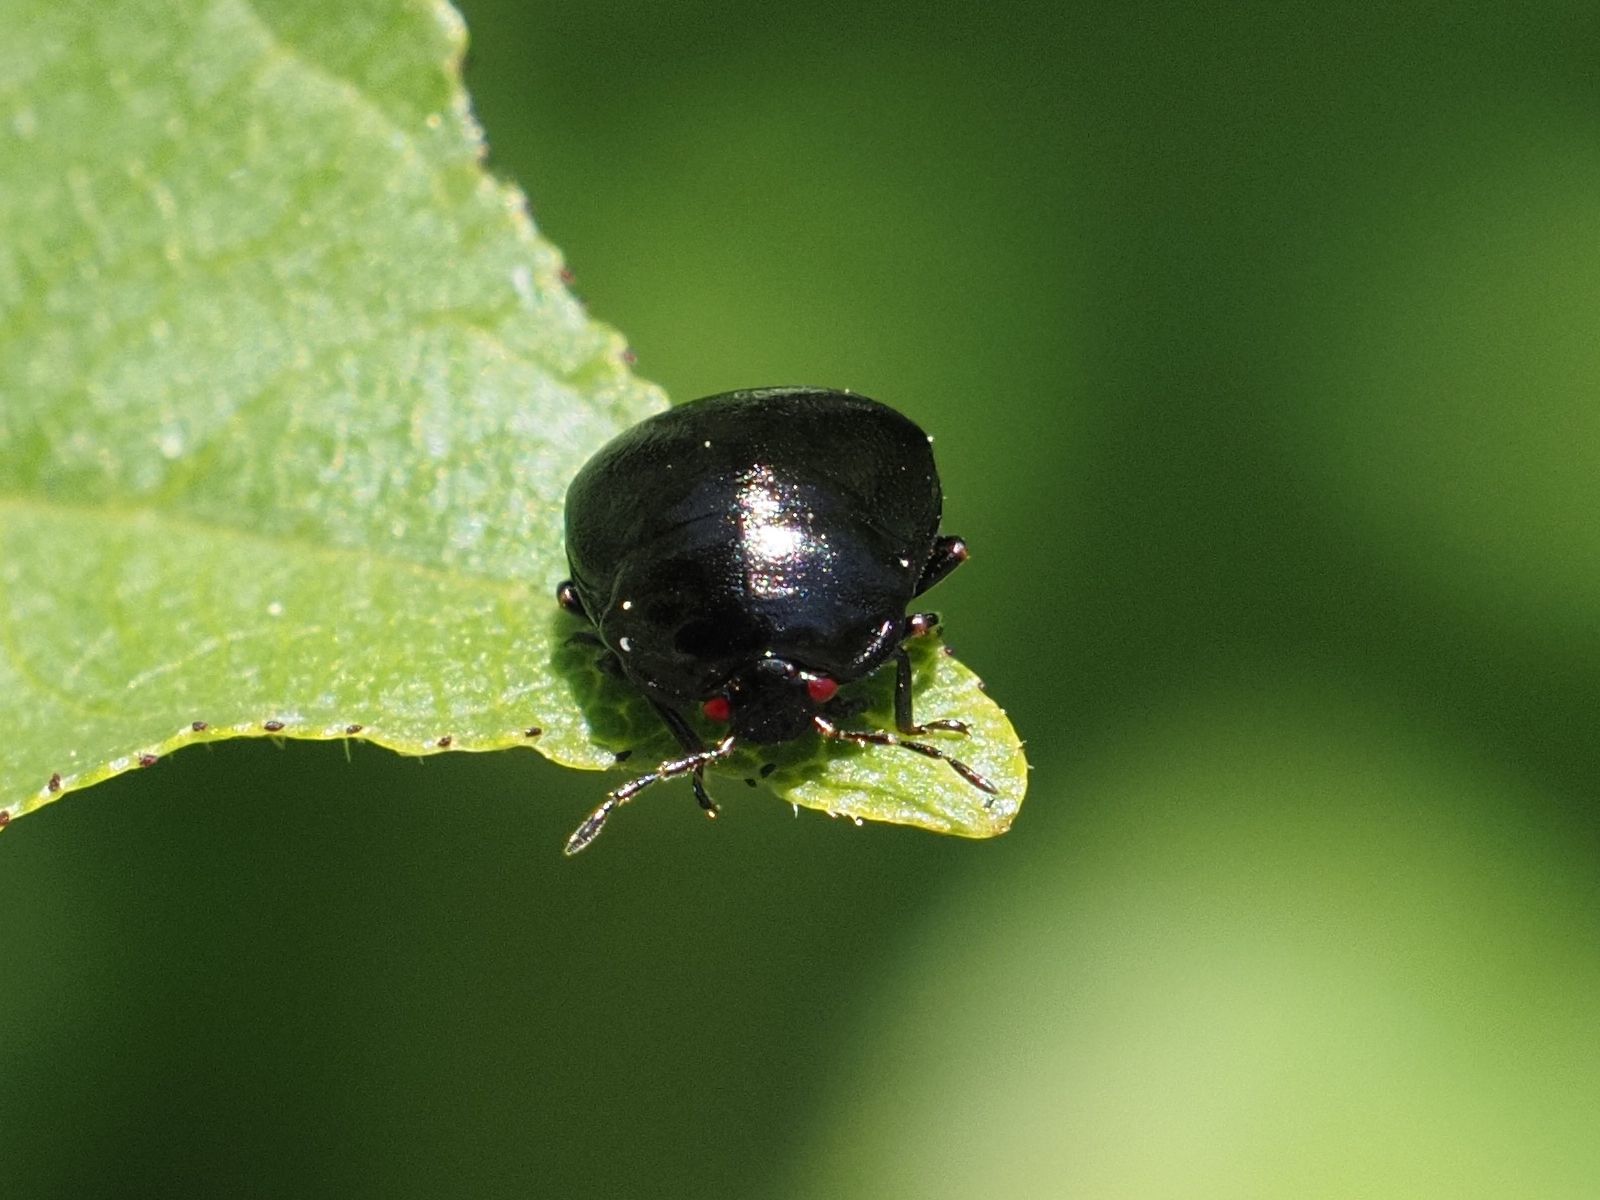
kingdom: Animalia
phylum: Arthropoda
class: Insecta
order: Hemiptera
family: Plataspidae
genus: Coptosoma
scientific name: Coptosoma scutellatum
